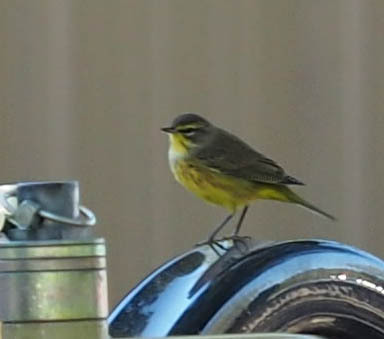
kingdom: Animalia
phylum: Chordata
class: Aves
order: Passeriformes
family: Parulidae
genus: Setophaga
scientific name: Setophaga palmarum
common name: Palm warbler
